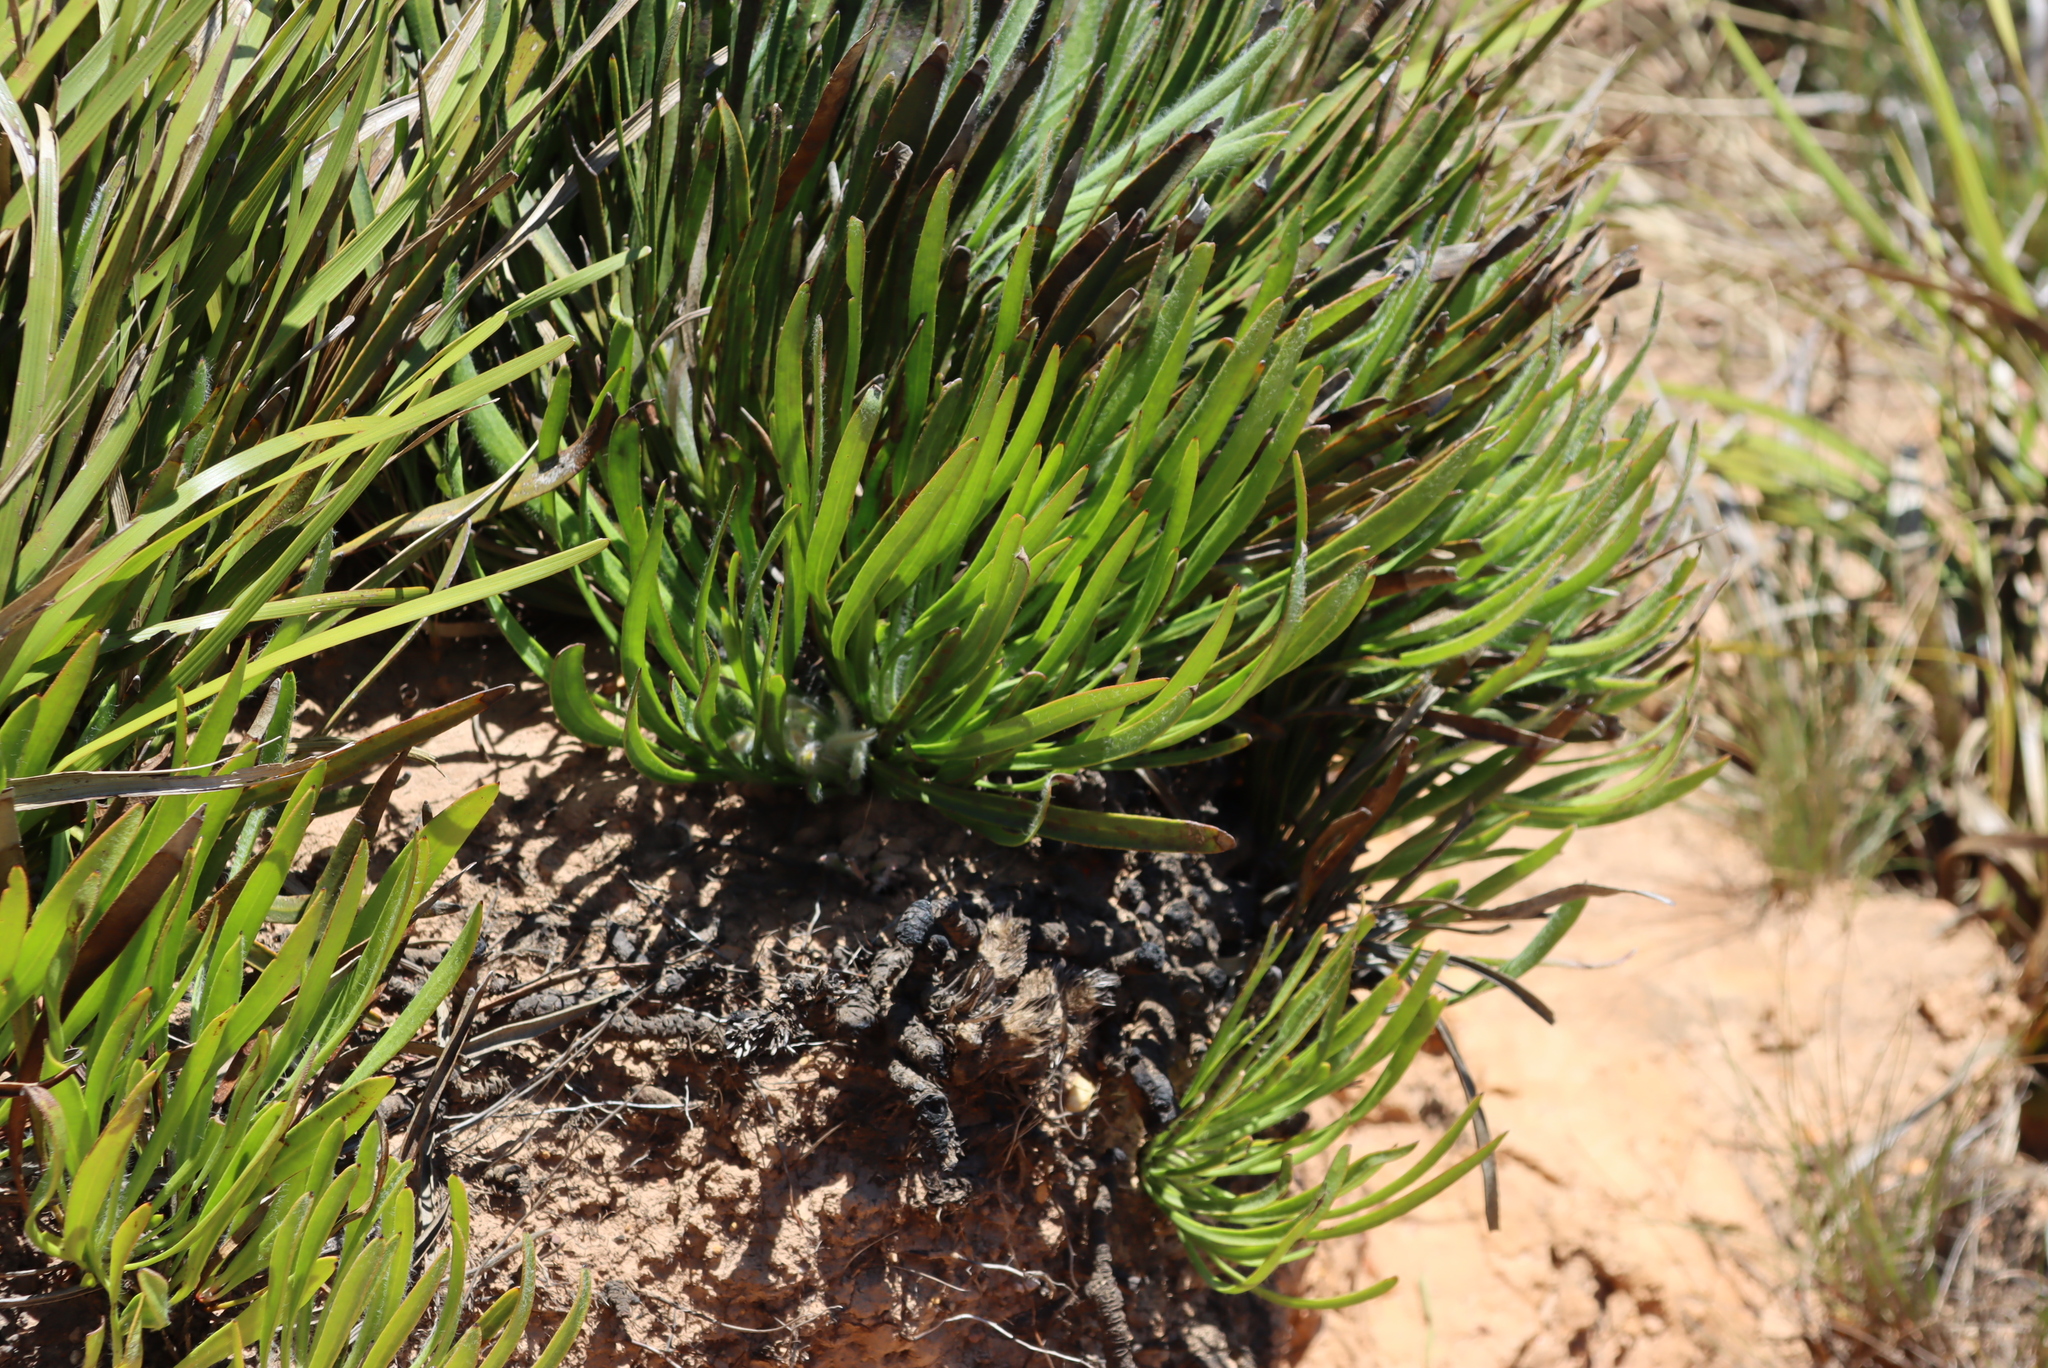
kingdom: Plantae
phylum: Tracheophyta
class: Magnoliopsida
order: Proteales
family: Proteaceae
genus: Protea
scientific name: Protea scabra
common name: Sandpaper-leaf sugarbush
